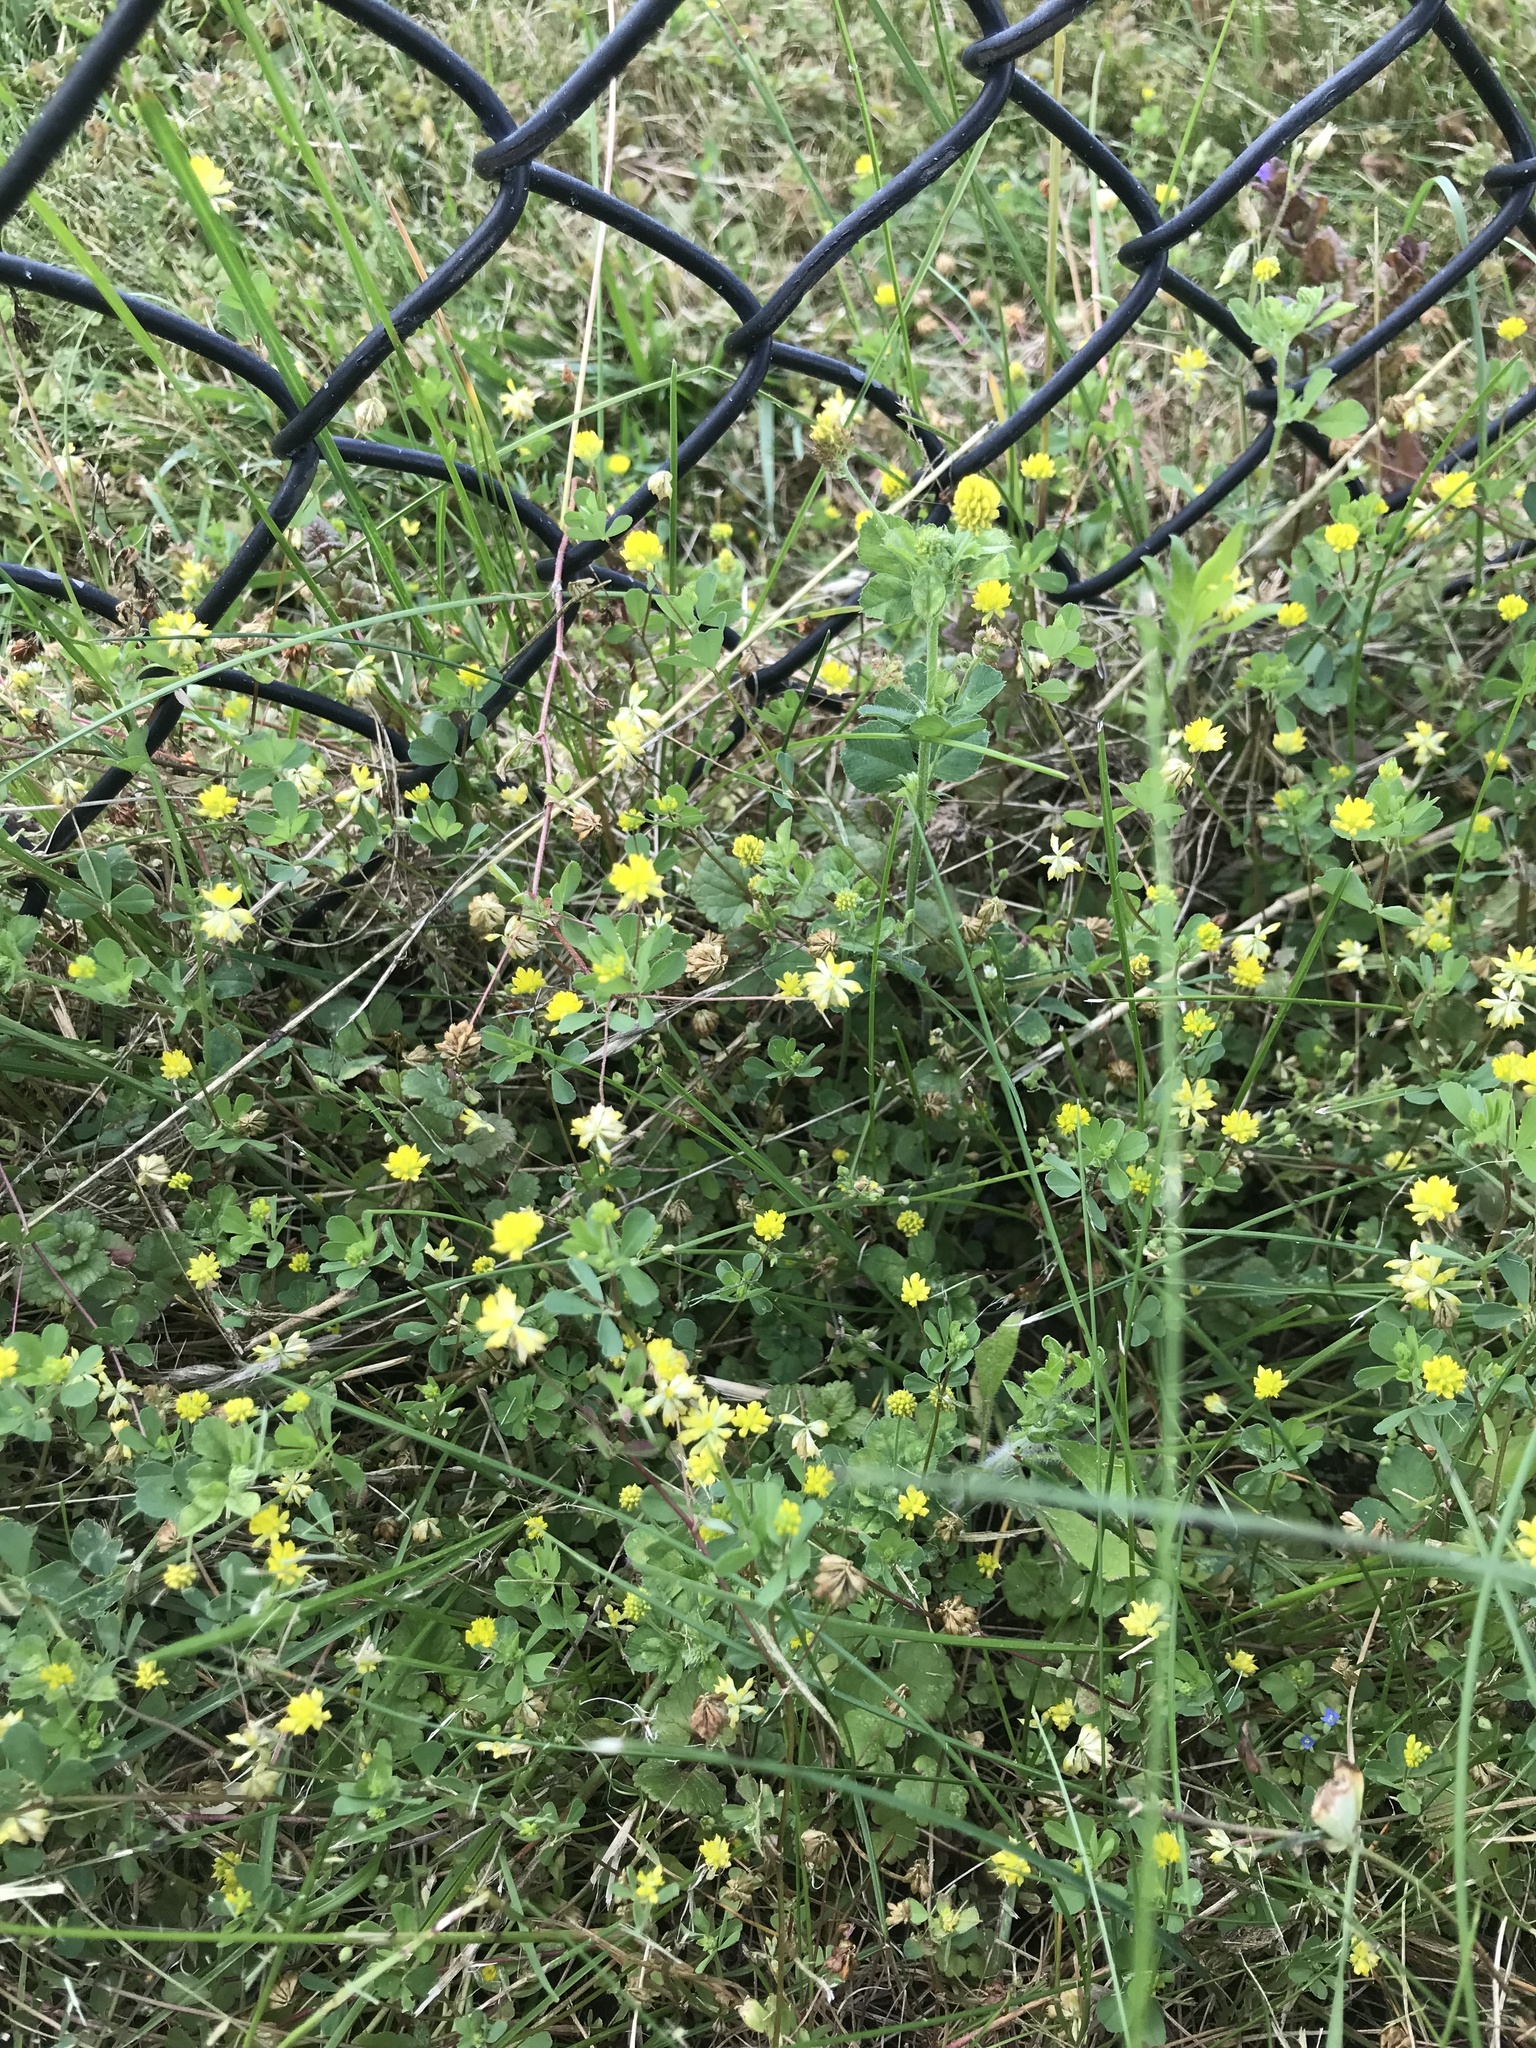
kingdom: Plantae
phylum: Tracheophyta
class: Magnoliopsida
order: Fabales
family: Fabaceae
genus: Trifolium
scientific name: Trifolium dubium
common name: Suckling clover
